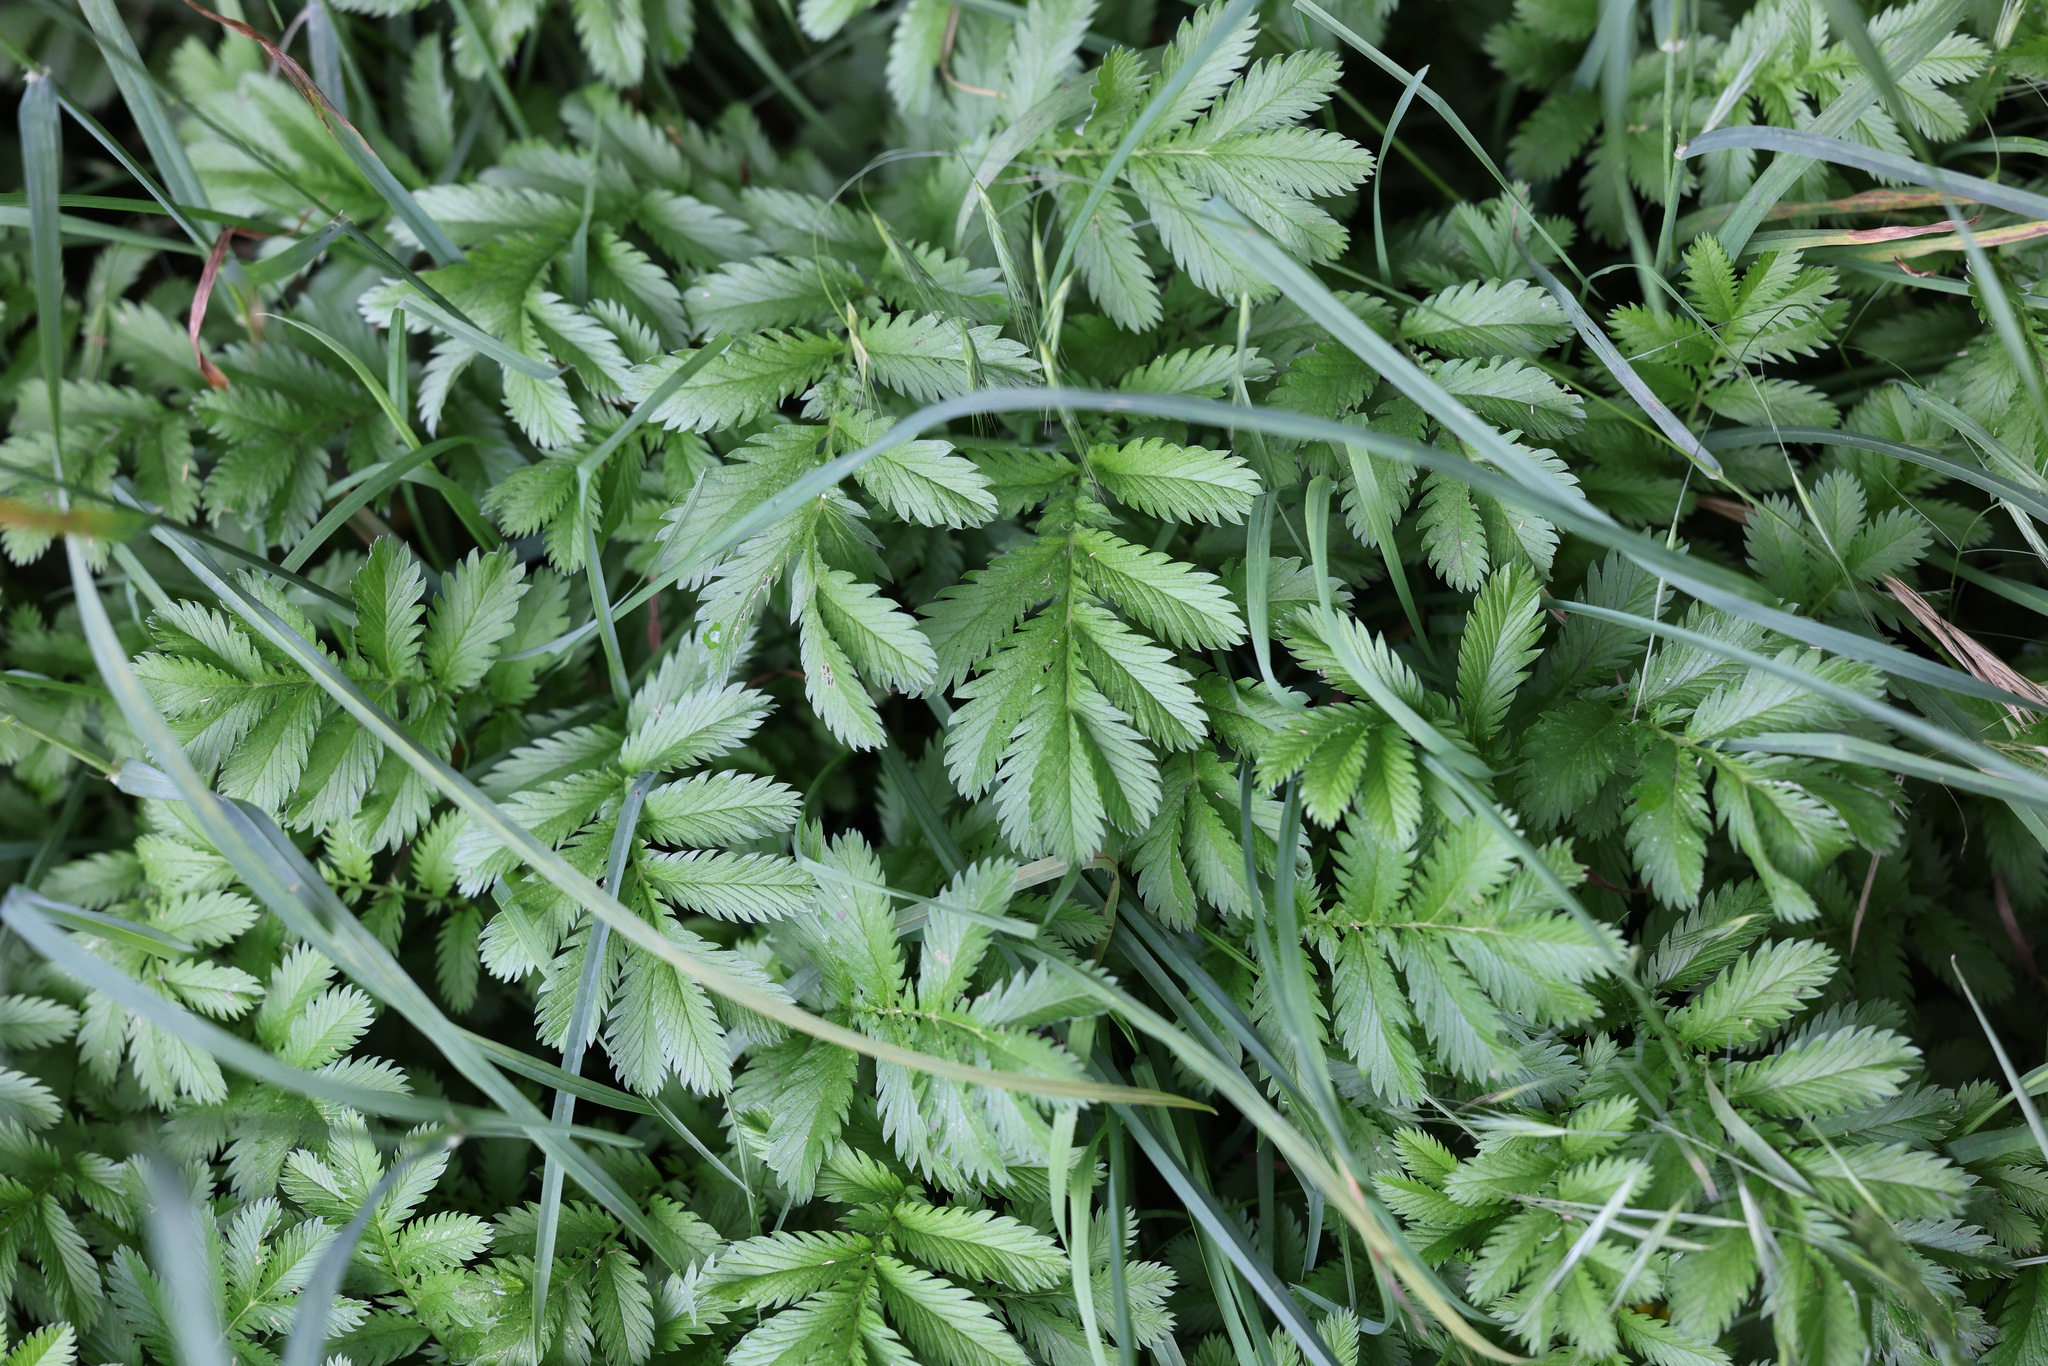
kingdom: Plantae
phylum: Tracheophyta
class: Magnoliopsida
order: Rosales
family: Rosaceae
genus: Argentina
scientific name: Argentina anserina
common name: Common silverweed
